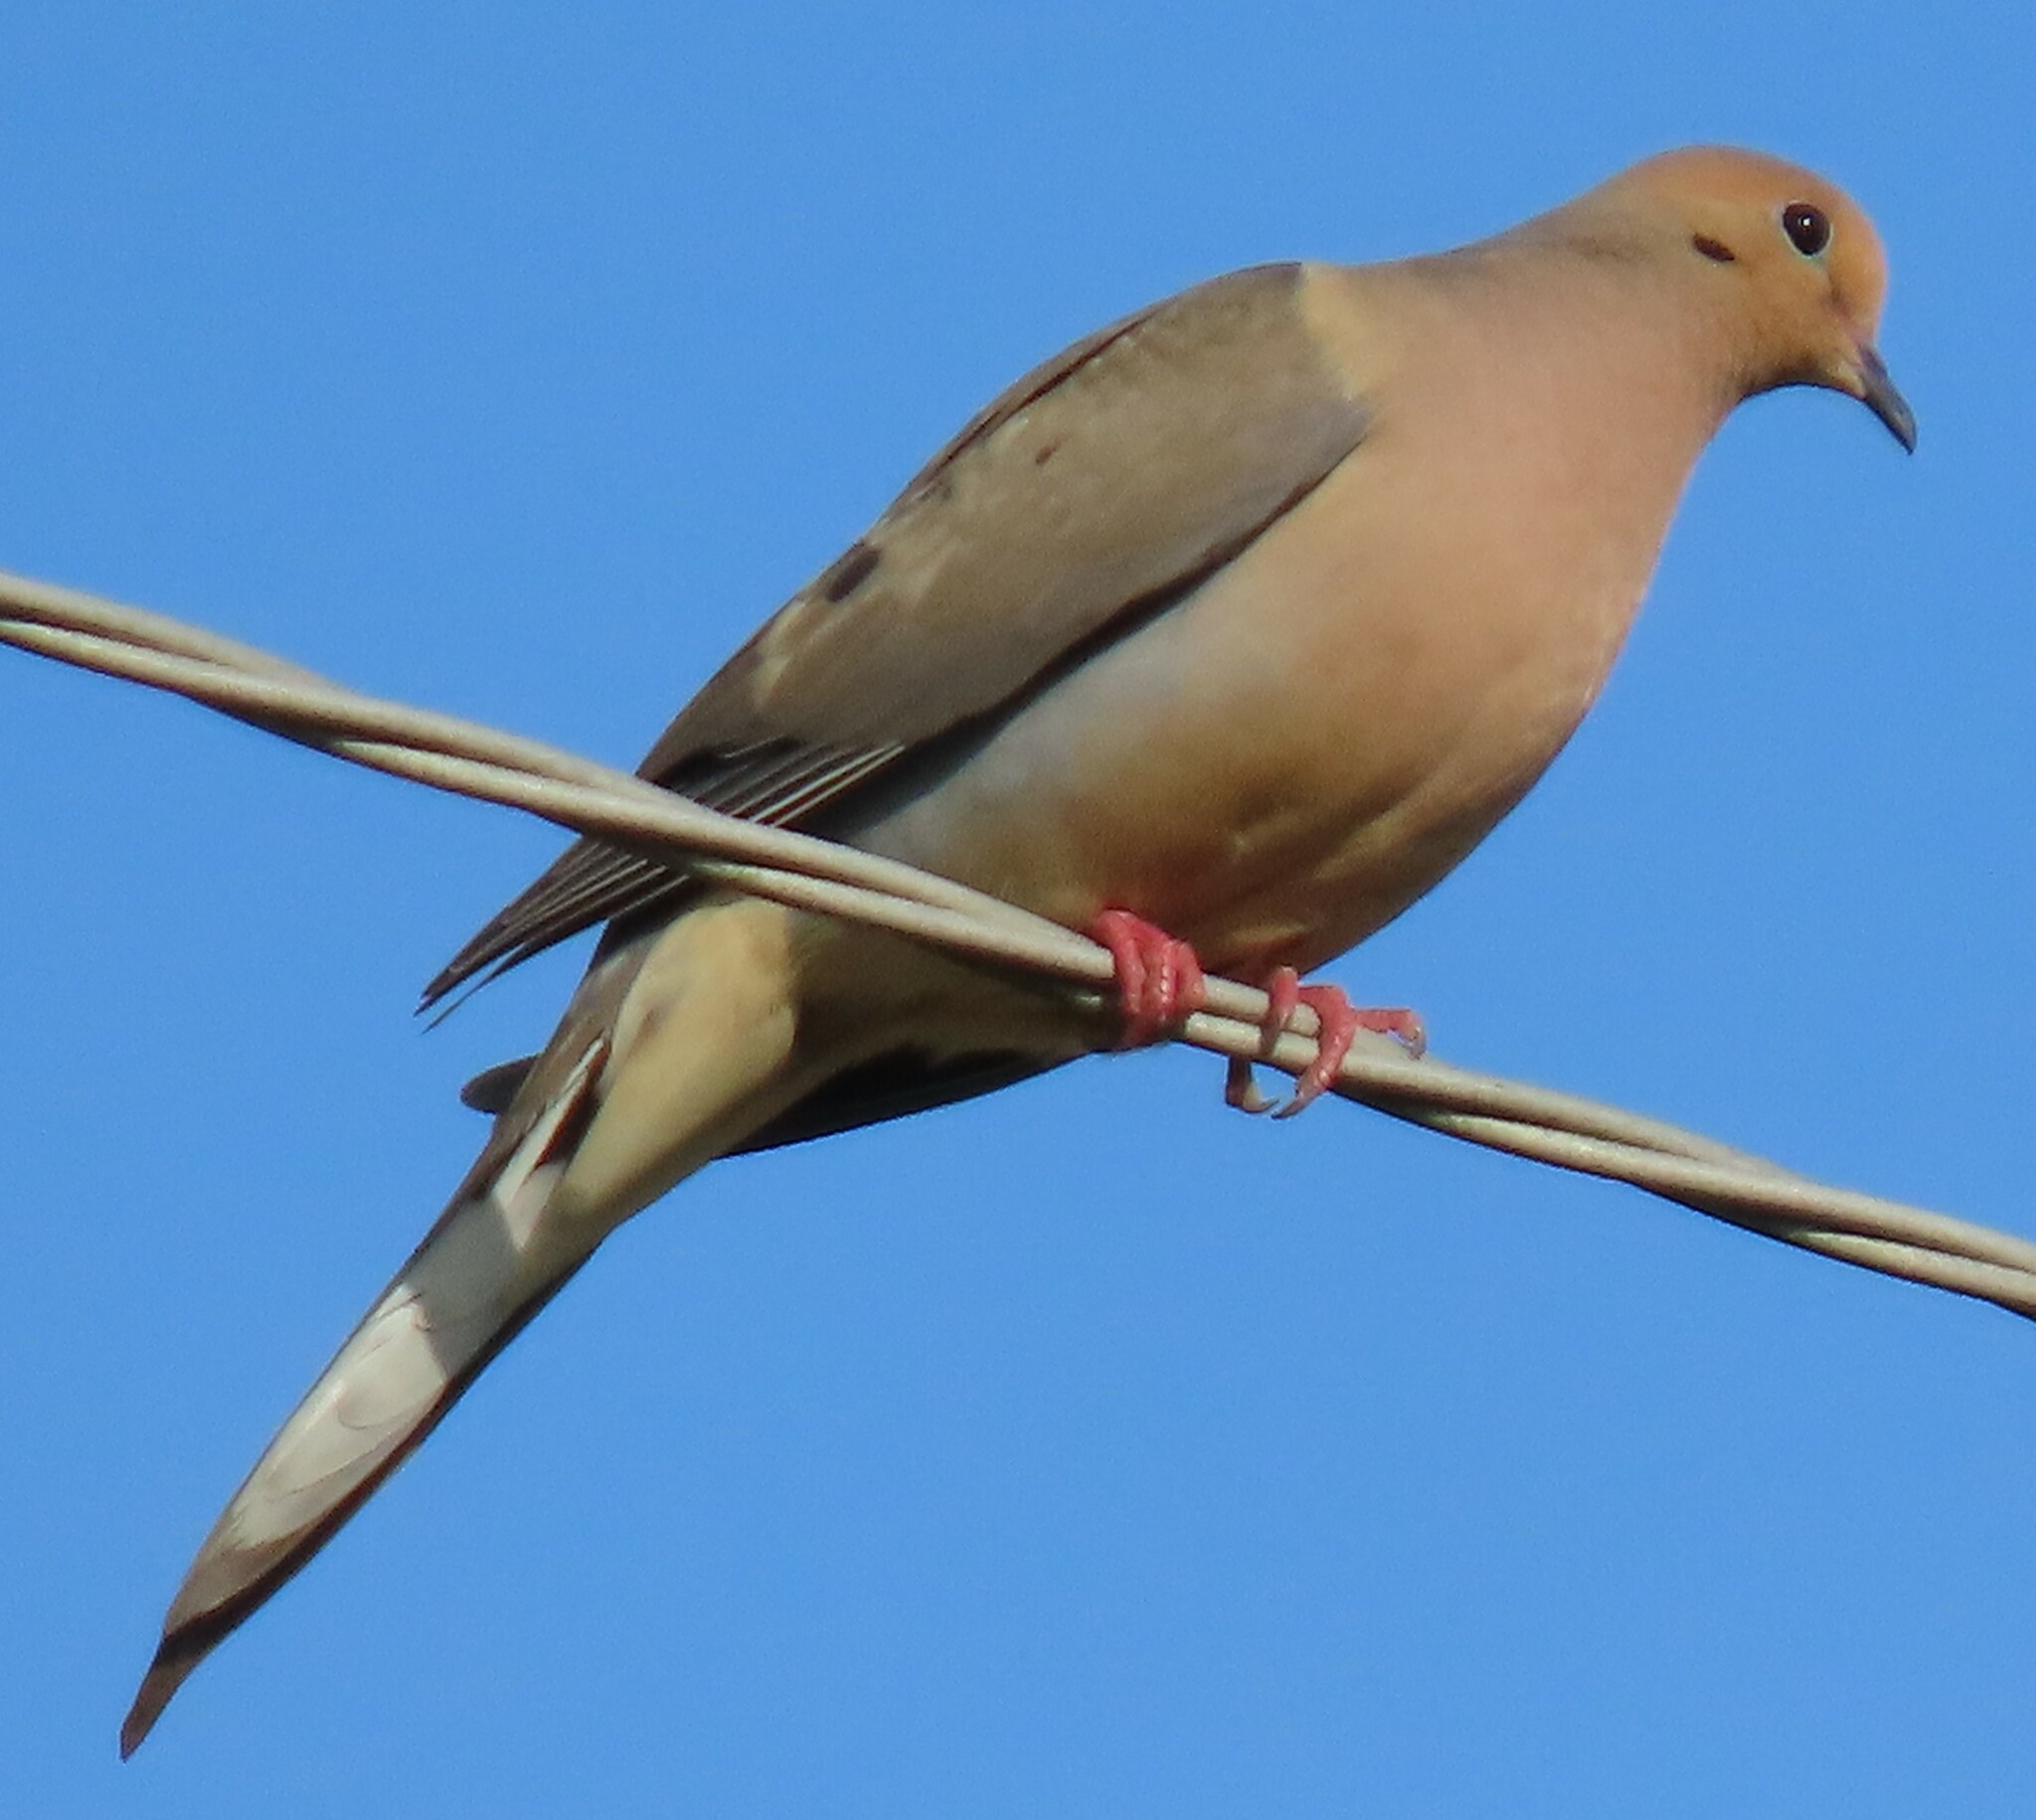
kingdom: Animalia
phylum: Chordata
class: Aves
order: Columbiformes
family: Columbidae
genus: Zenaida
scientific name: Zenaida macroura
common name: Mourning dove
